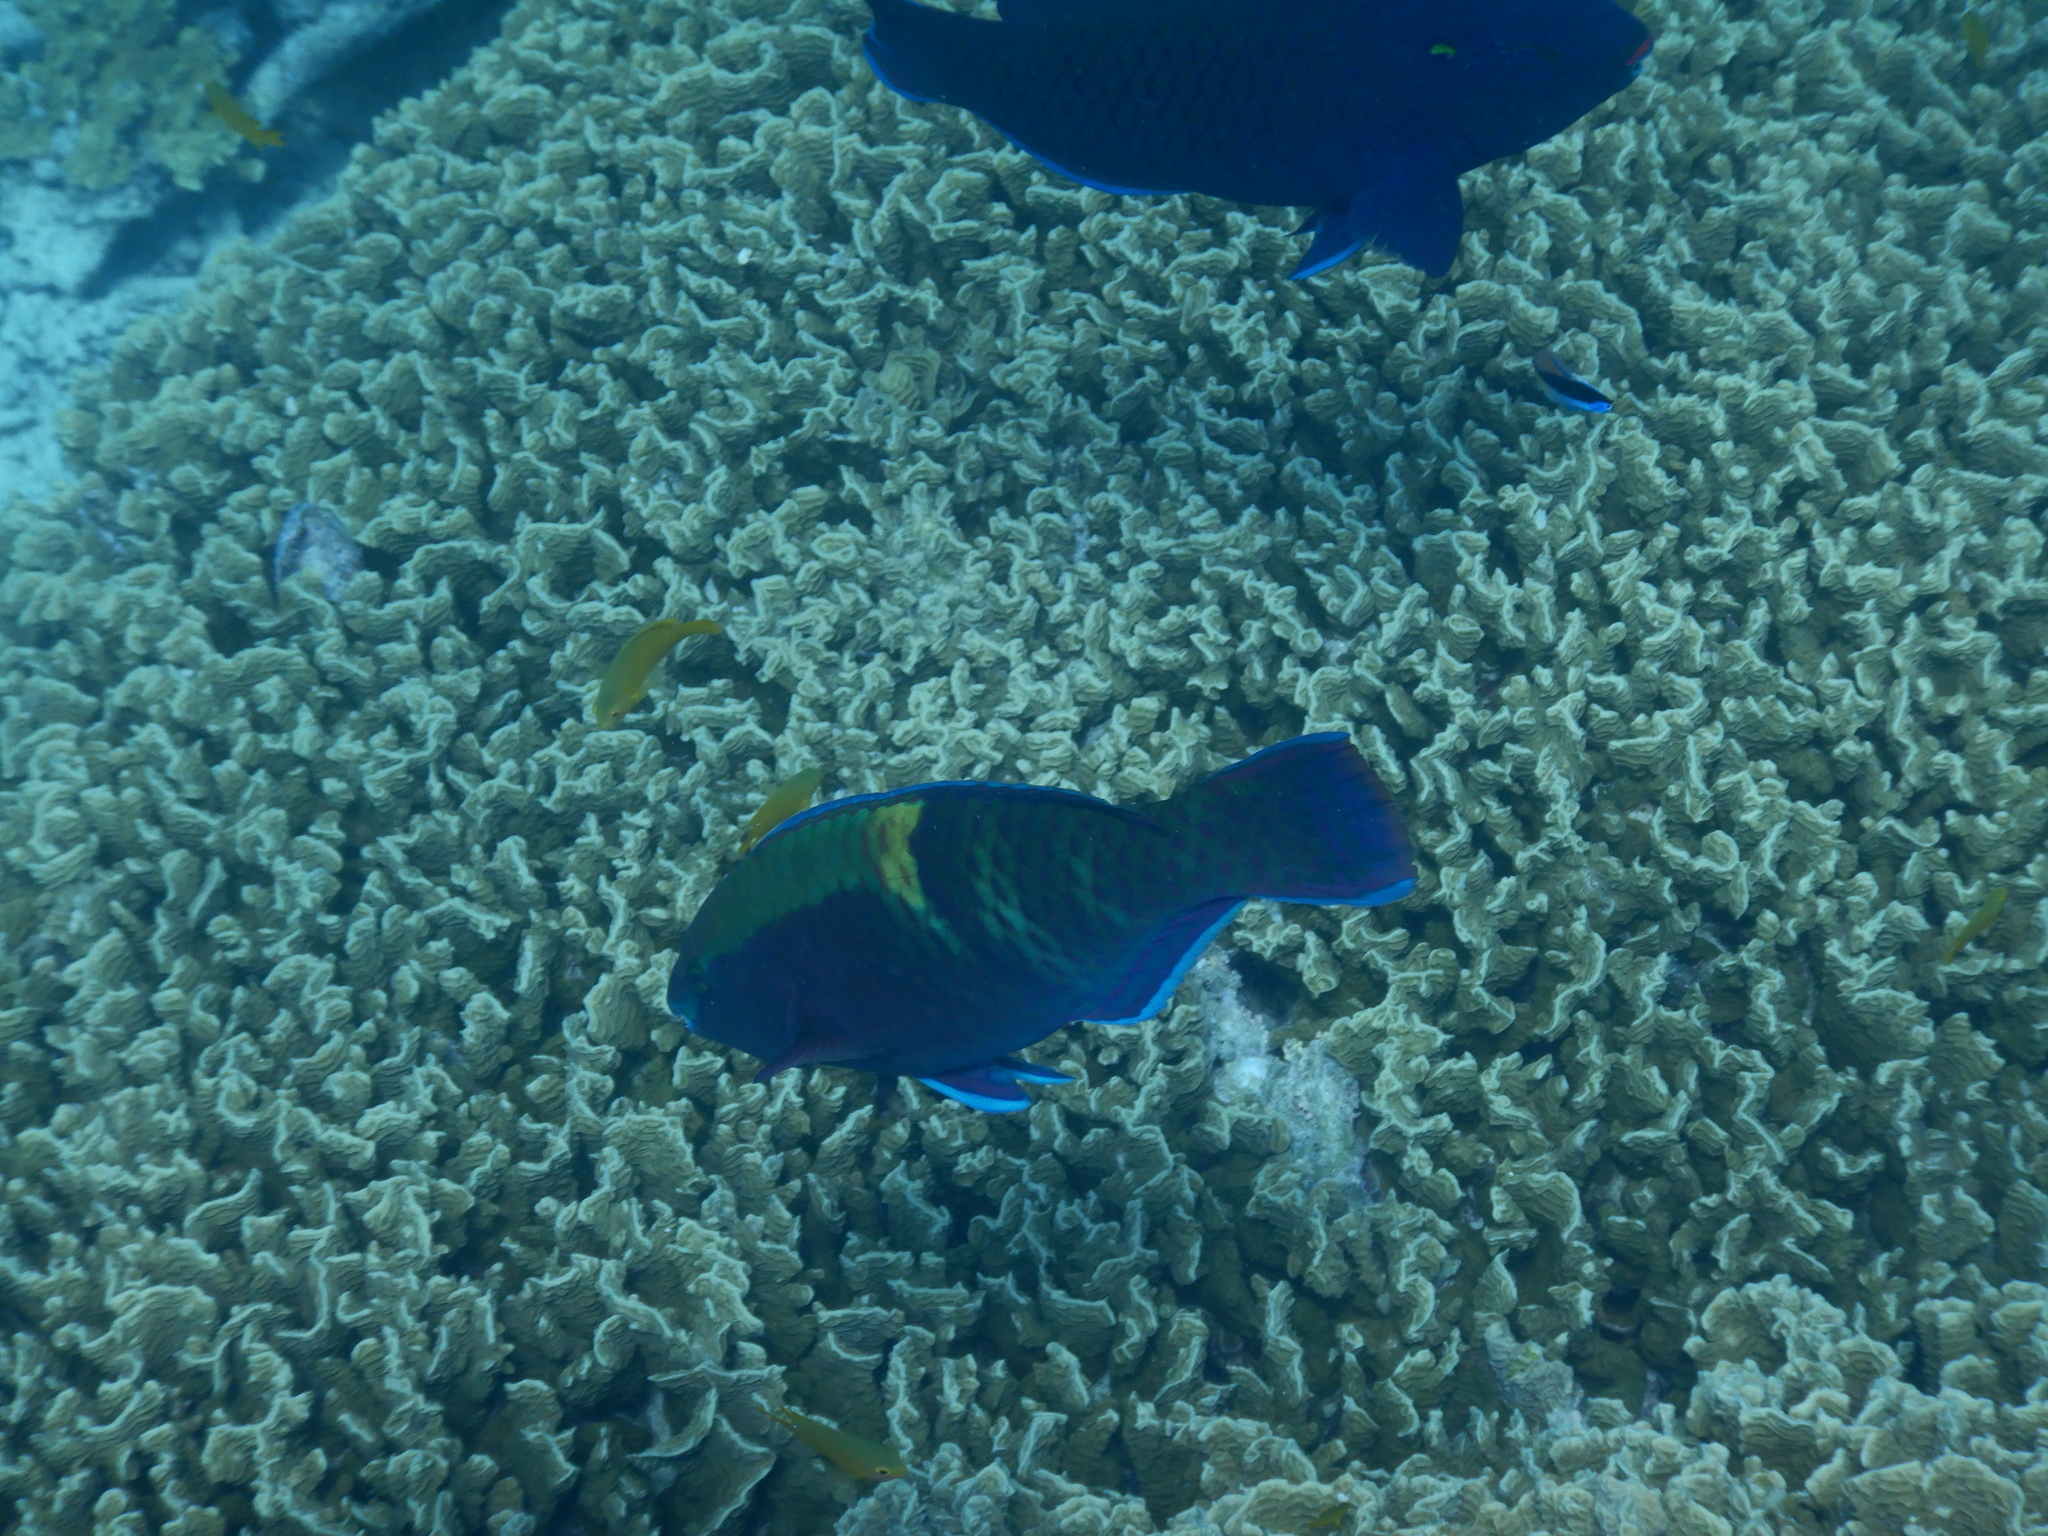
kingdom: Animalia
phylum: Chordata
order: Perciformes
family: Scaridae
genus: Scarus
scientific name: Scarus schlegeli
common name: Schlegel's parrotfish
